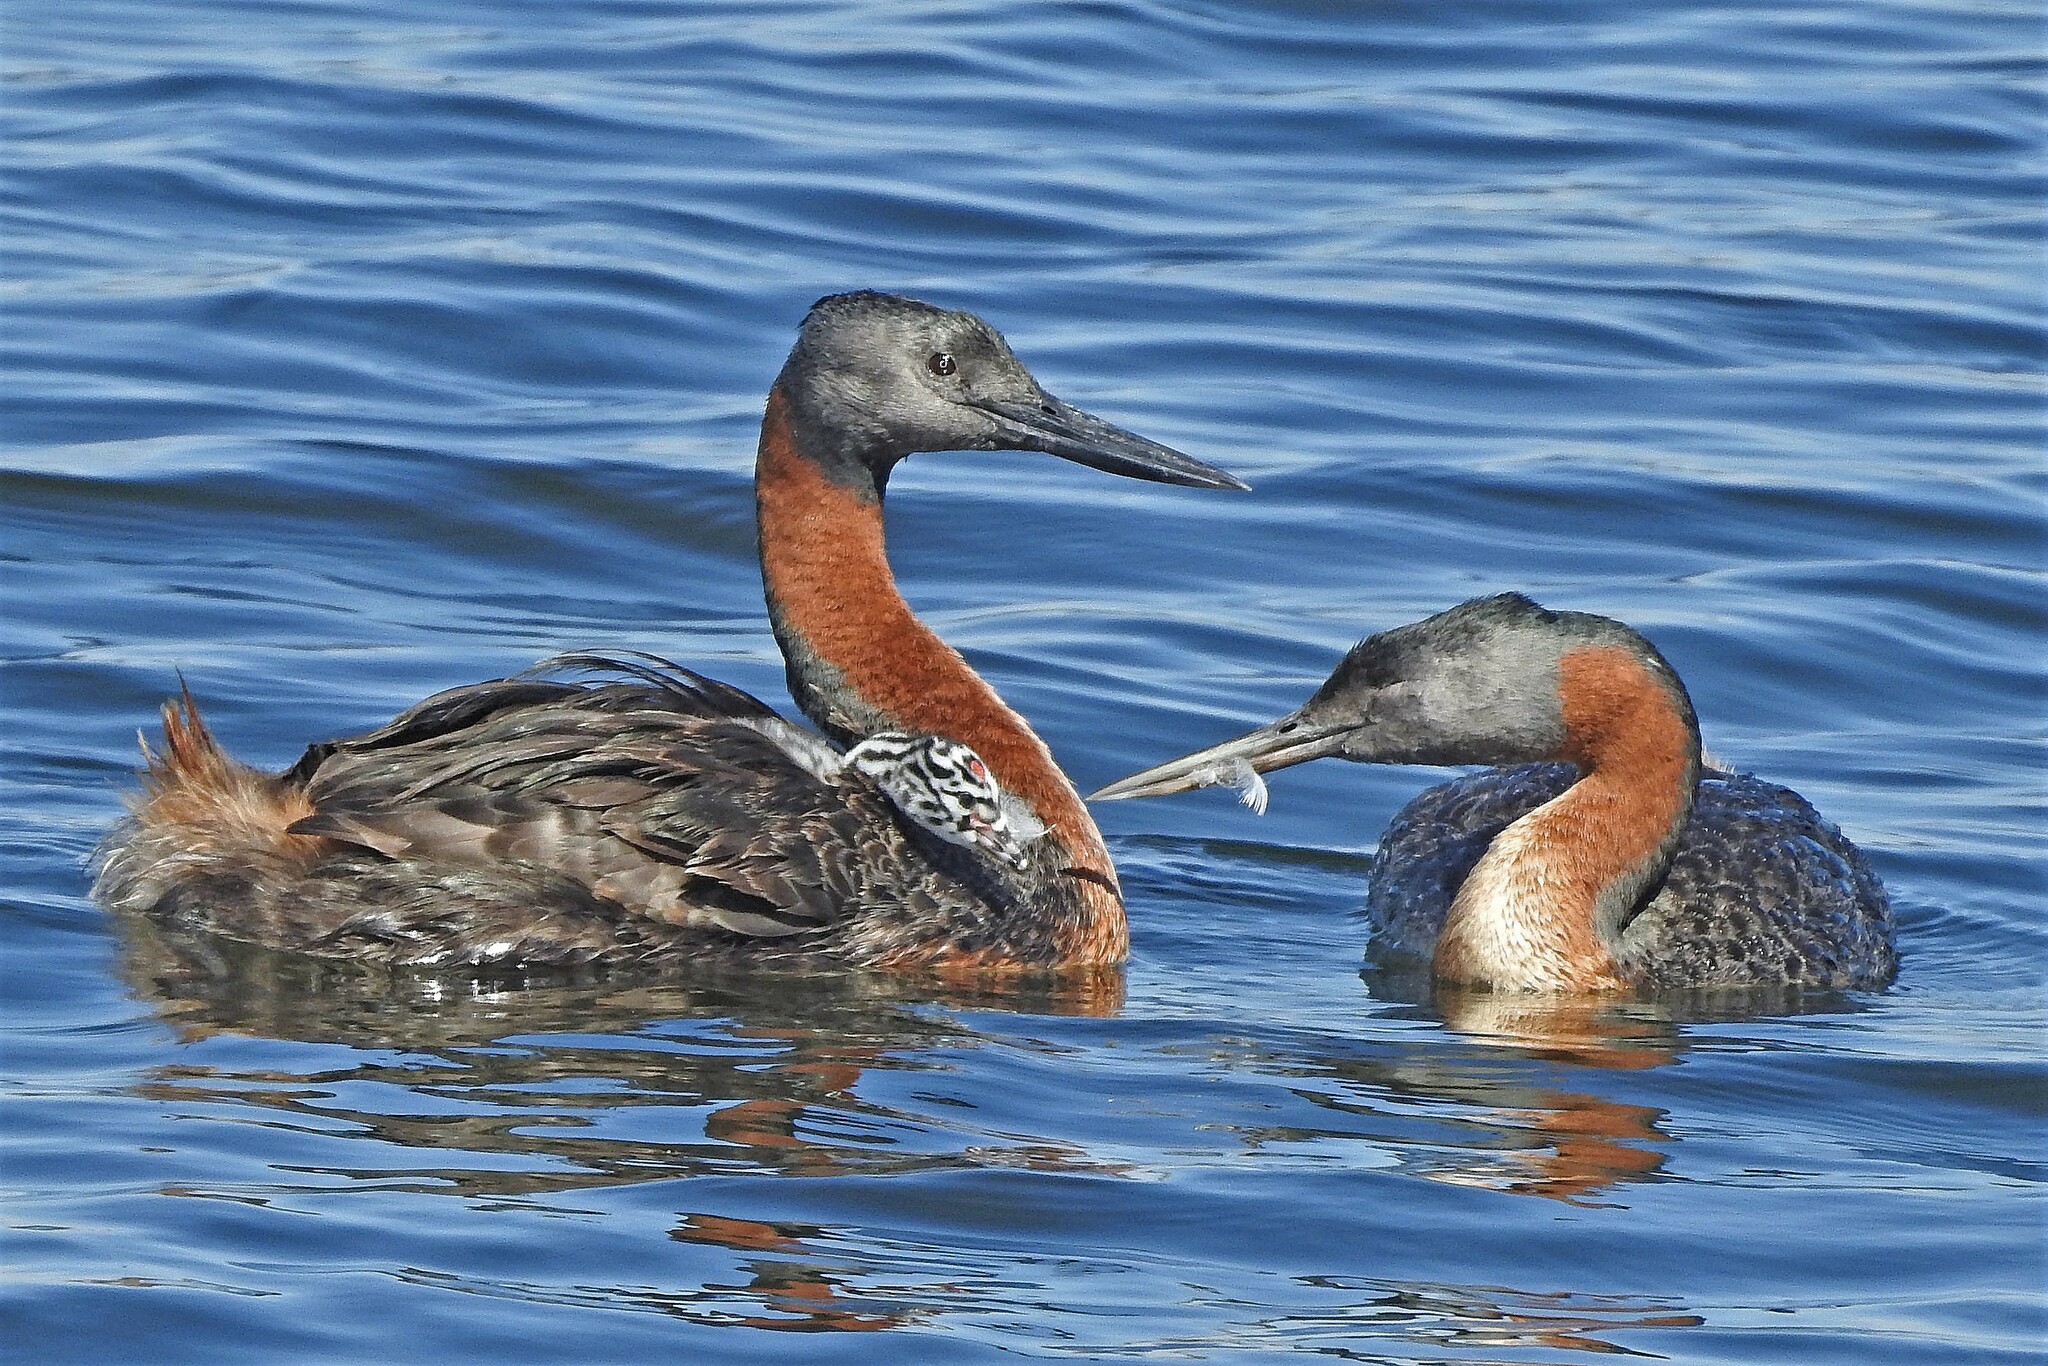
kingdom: Animalia
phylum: Chordata
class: Aves
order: Podicipediformes
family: Podicipedidae
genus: Podiceps
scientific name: Podiceps major
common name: Great grebe
